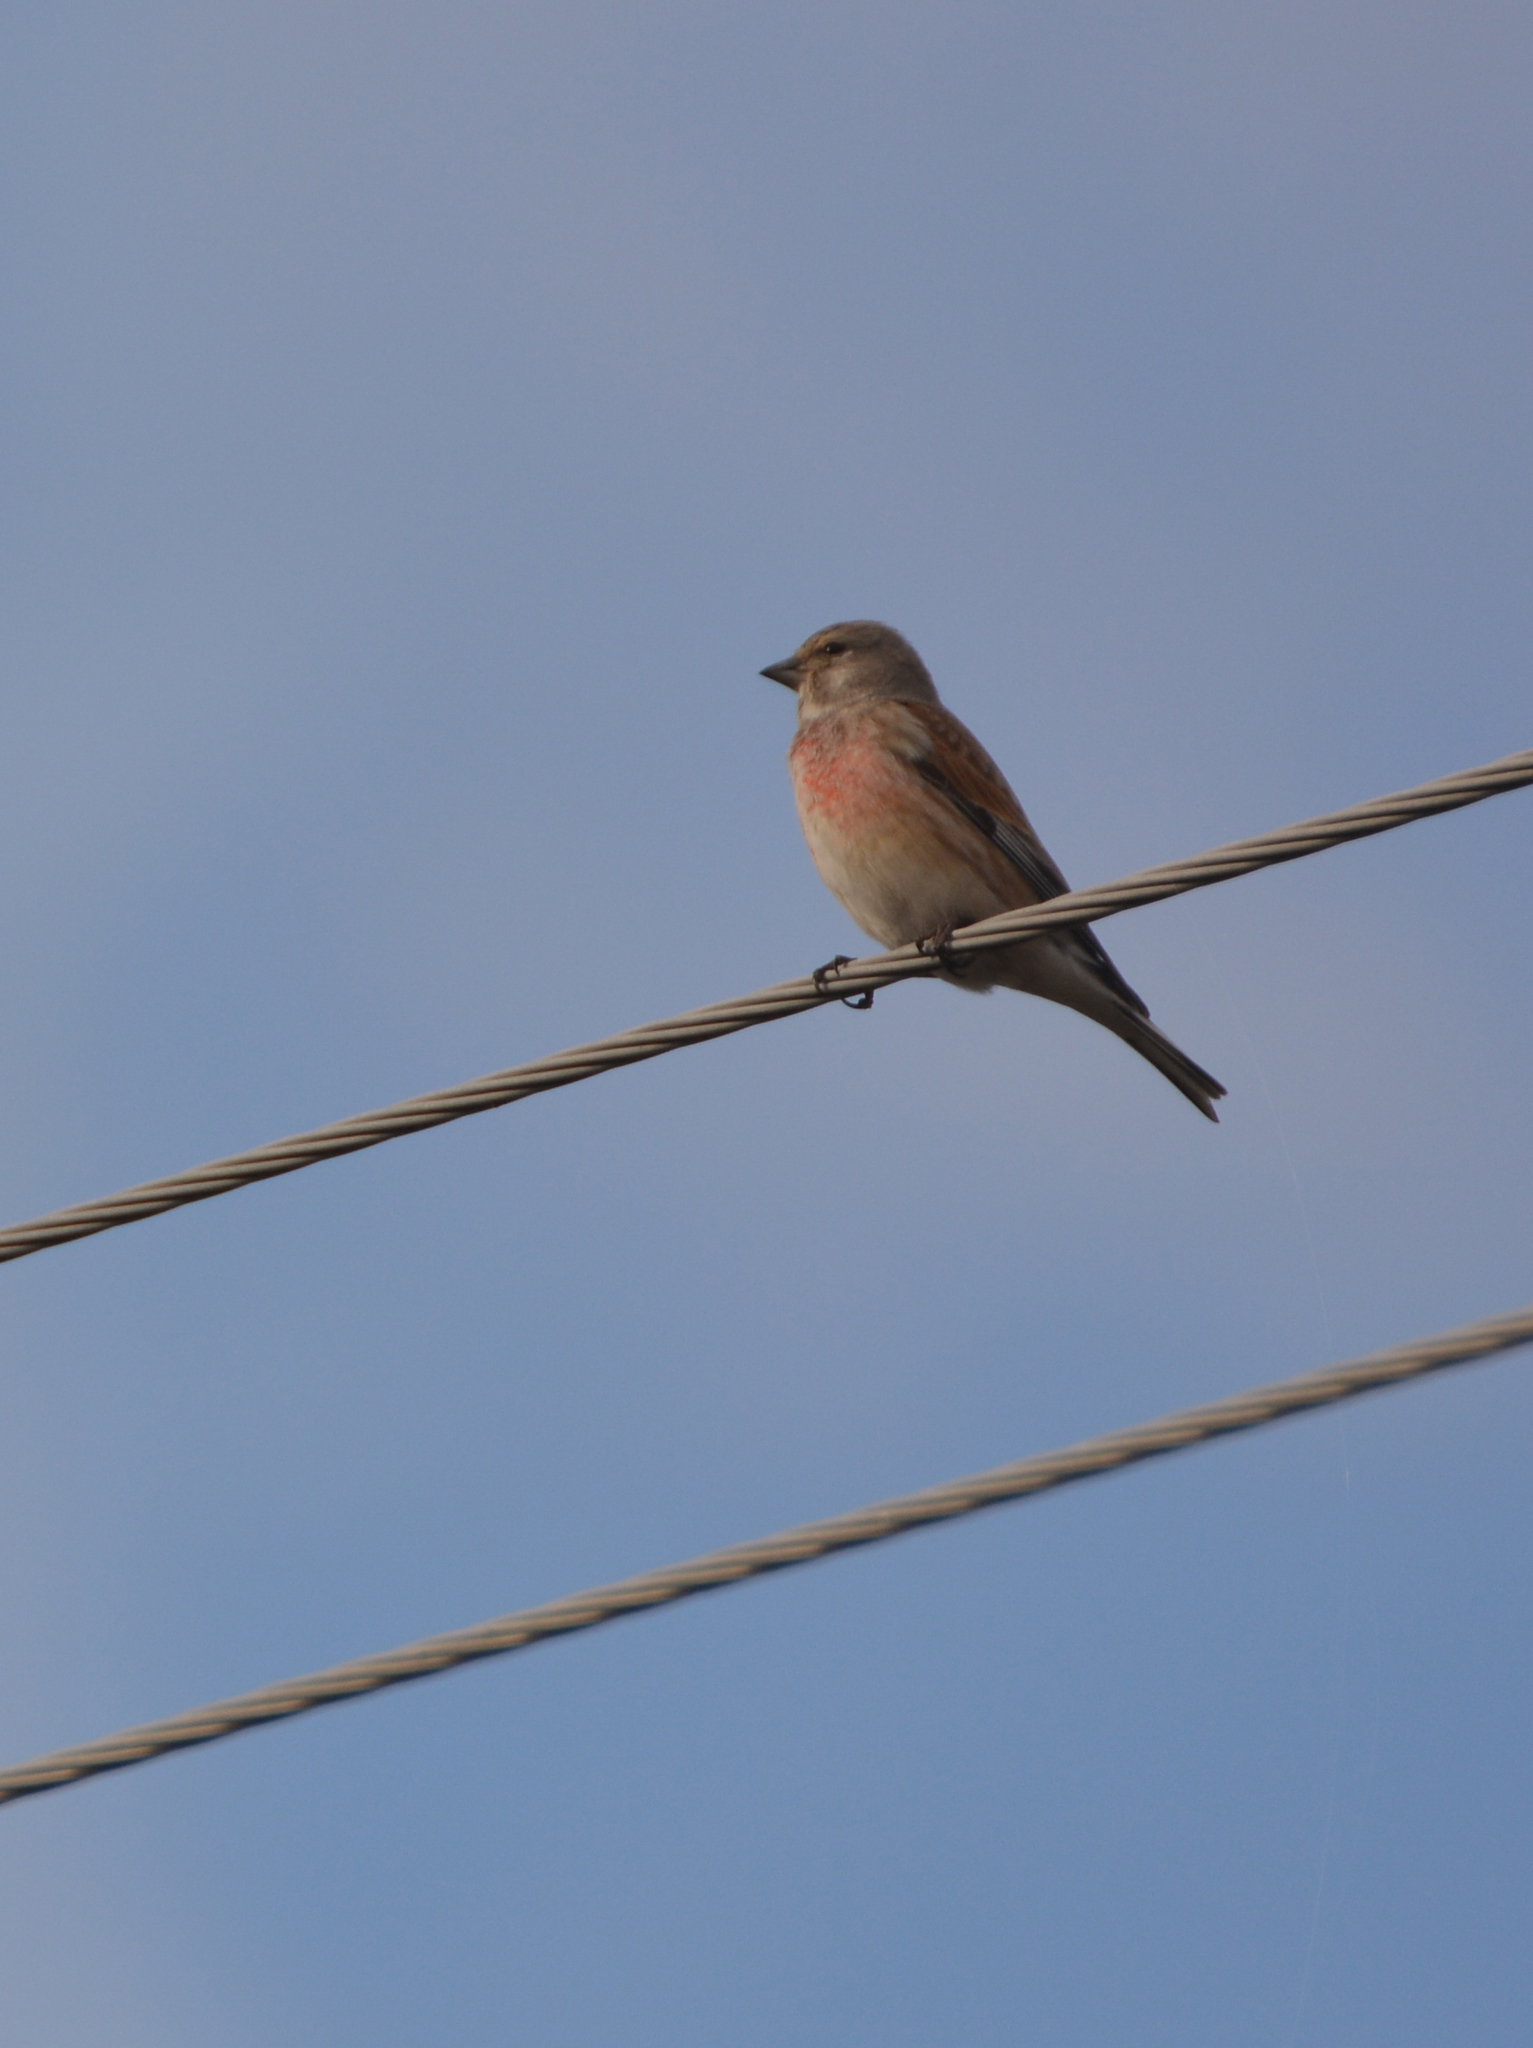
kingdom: Animalia
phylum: Chordata
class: Aves
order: Passeriformes
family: Fringillidae
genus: Linaria
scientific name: Linaria cannabina
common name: Common linnet
